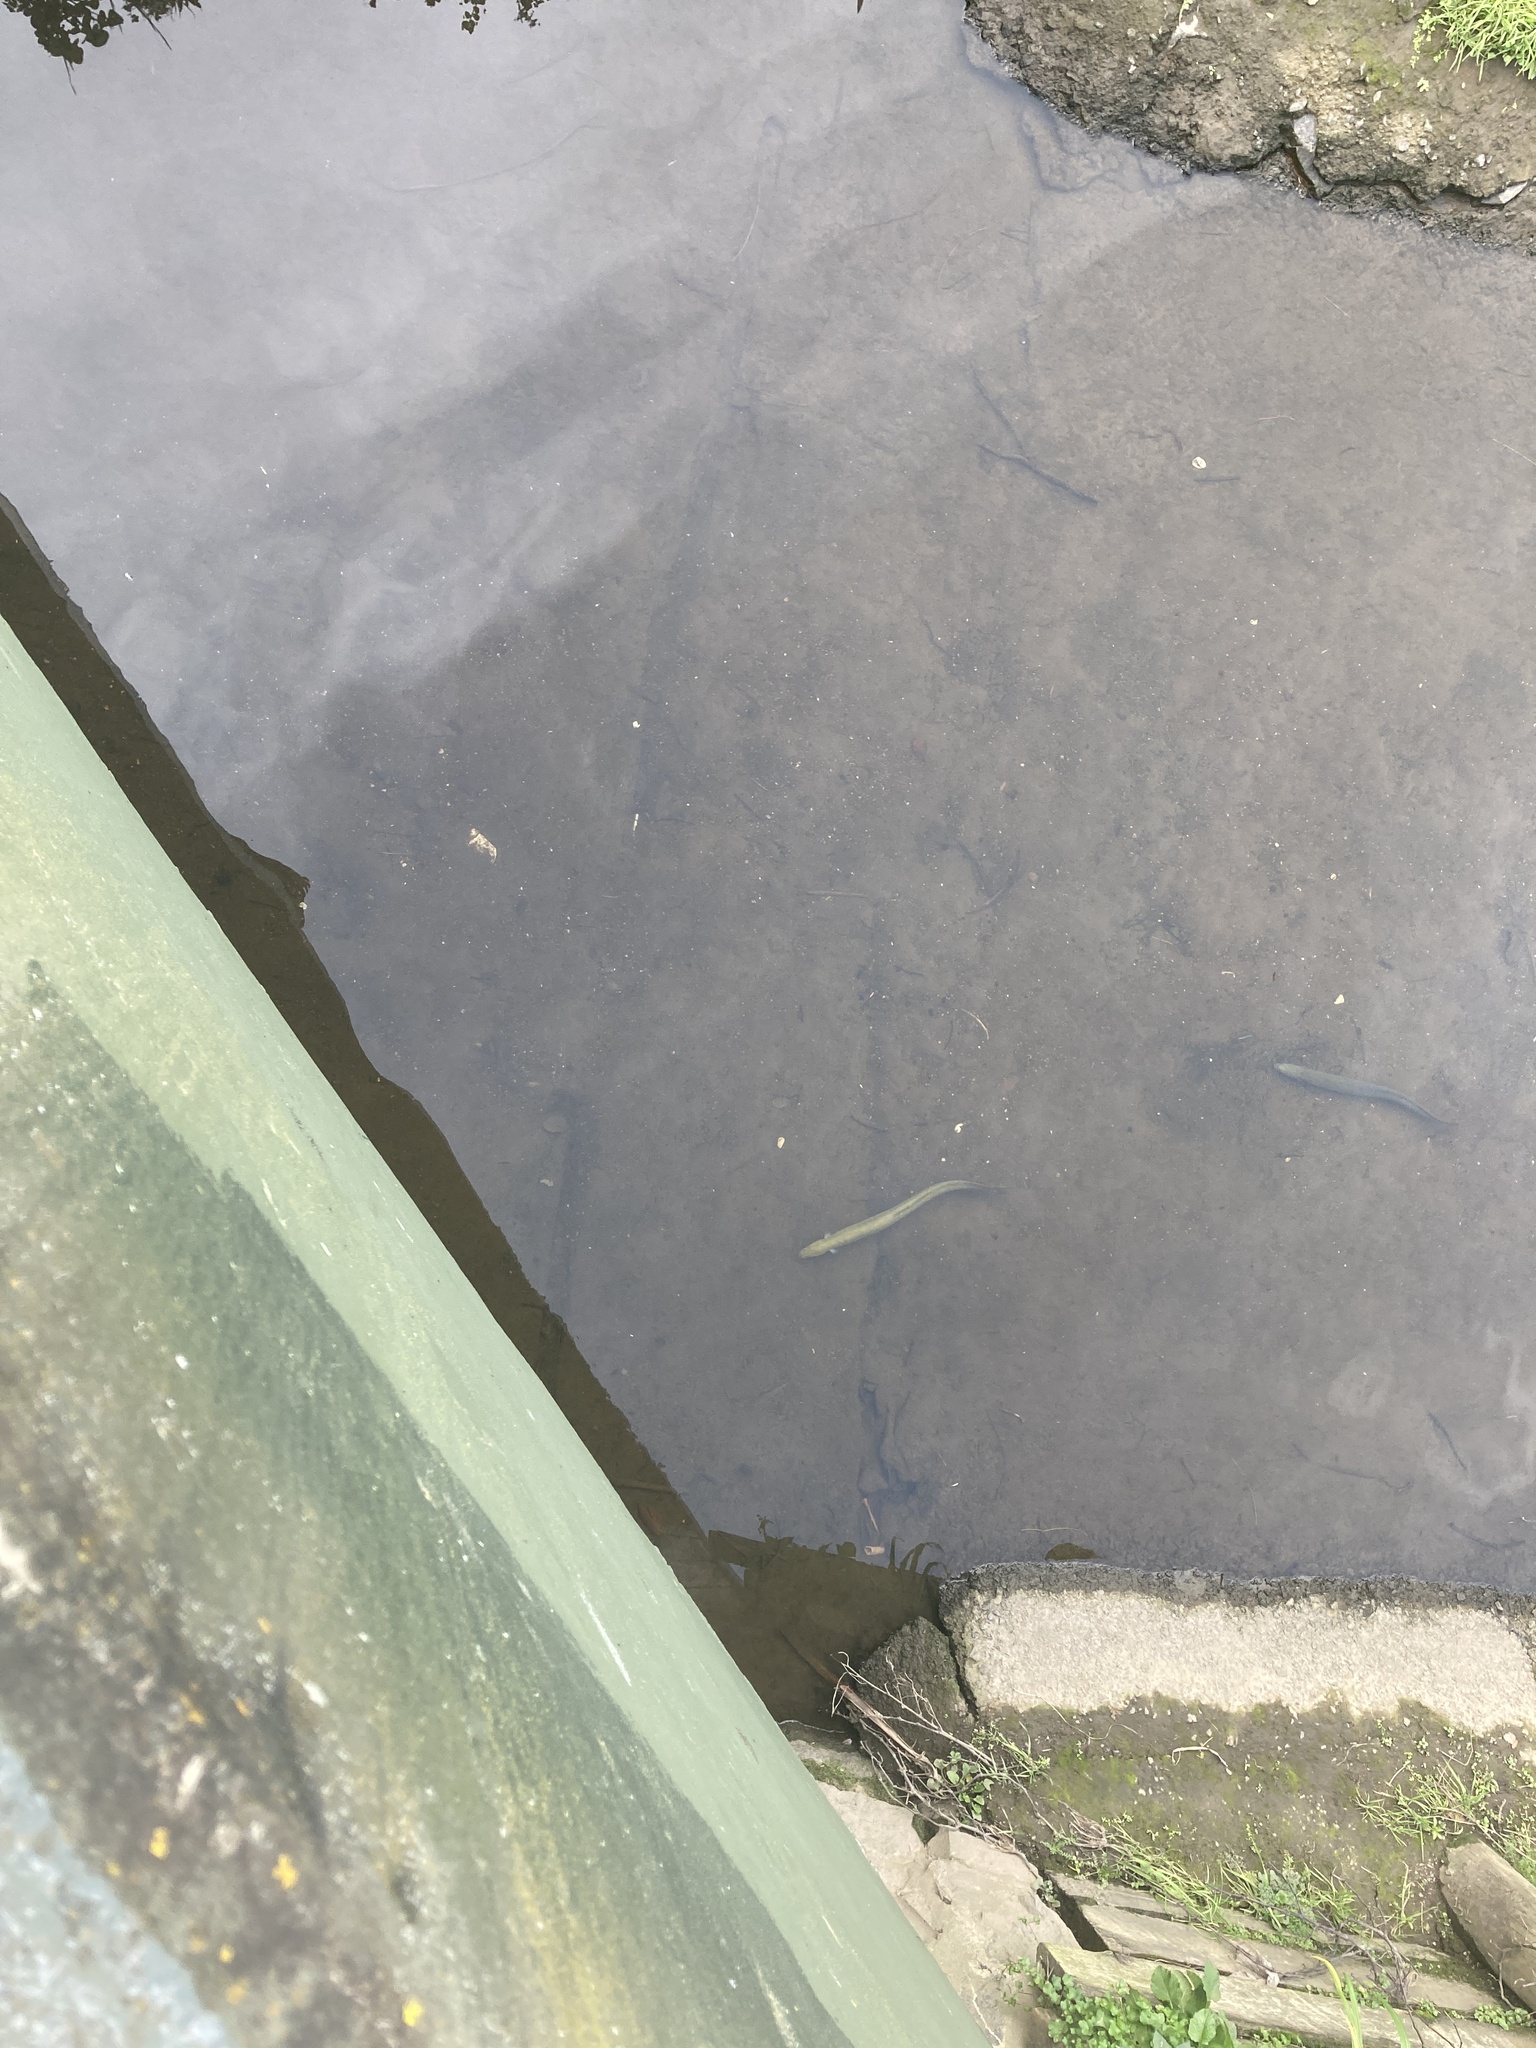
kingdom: Animalia
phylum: Chordata
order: Anguilliformes
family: Anguillidae
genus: Anguilla
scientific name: Anguilla australis
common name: Shortfin eel
